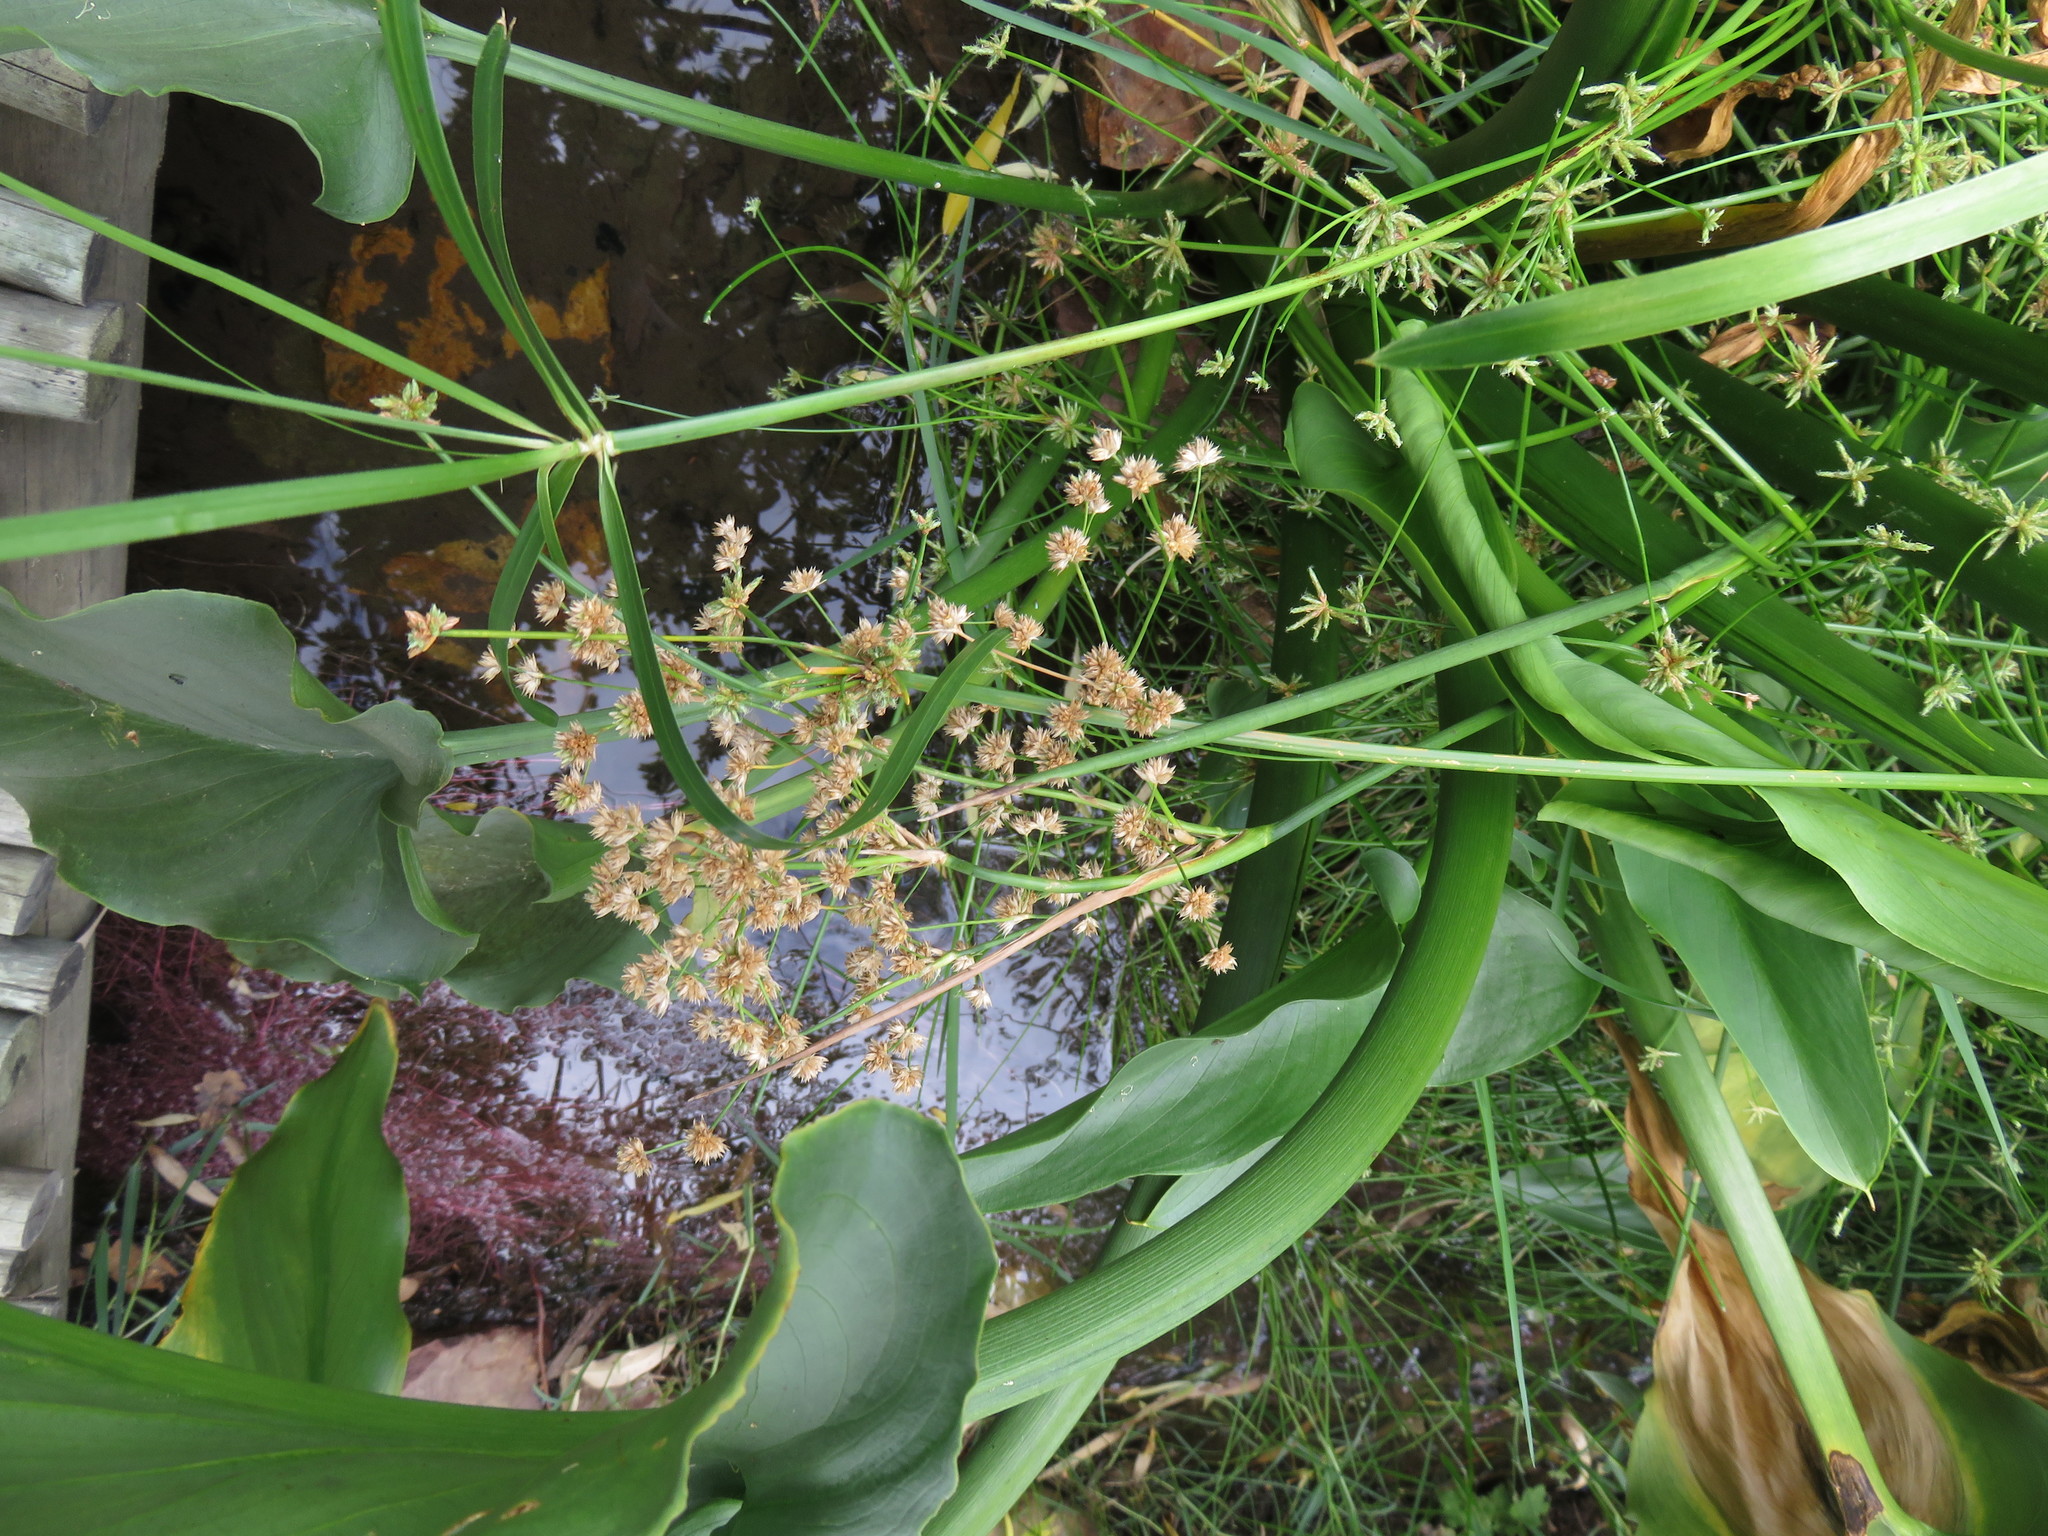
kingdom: Plantae
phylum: Tracheophyta
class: Liliopsida
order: Poales
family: Cyperaceae
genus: Isolepis
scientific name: Isolepis prolifera
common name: Proliferating bulrush
